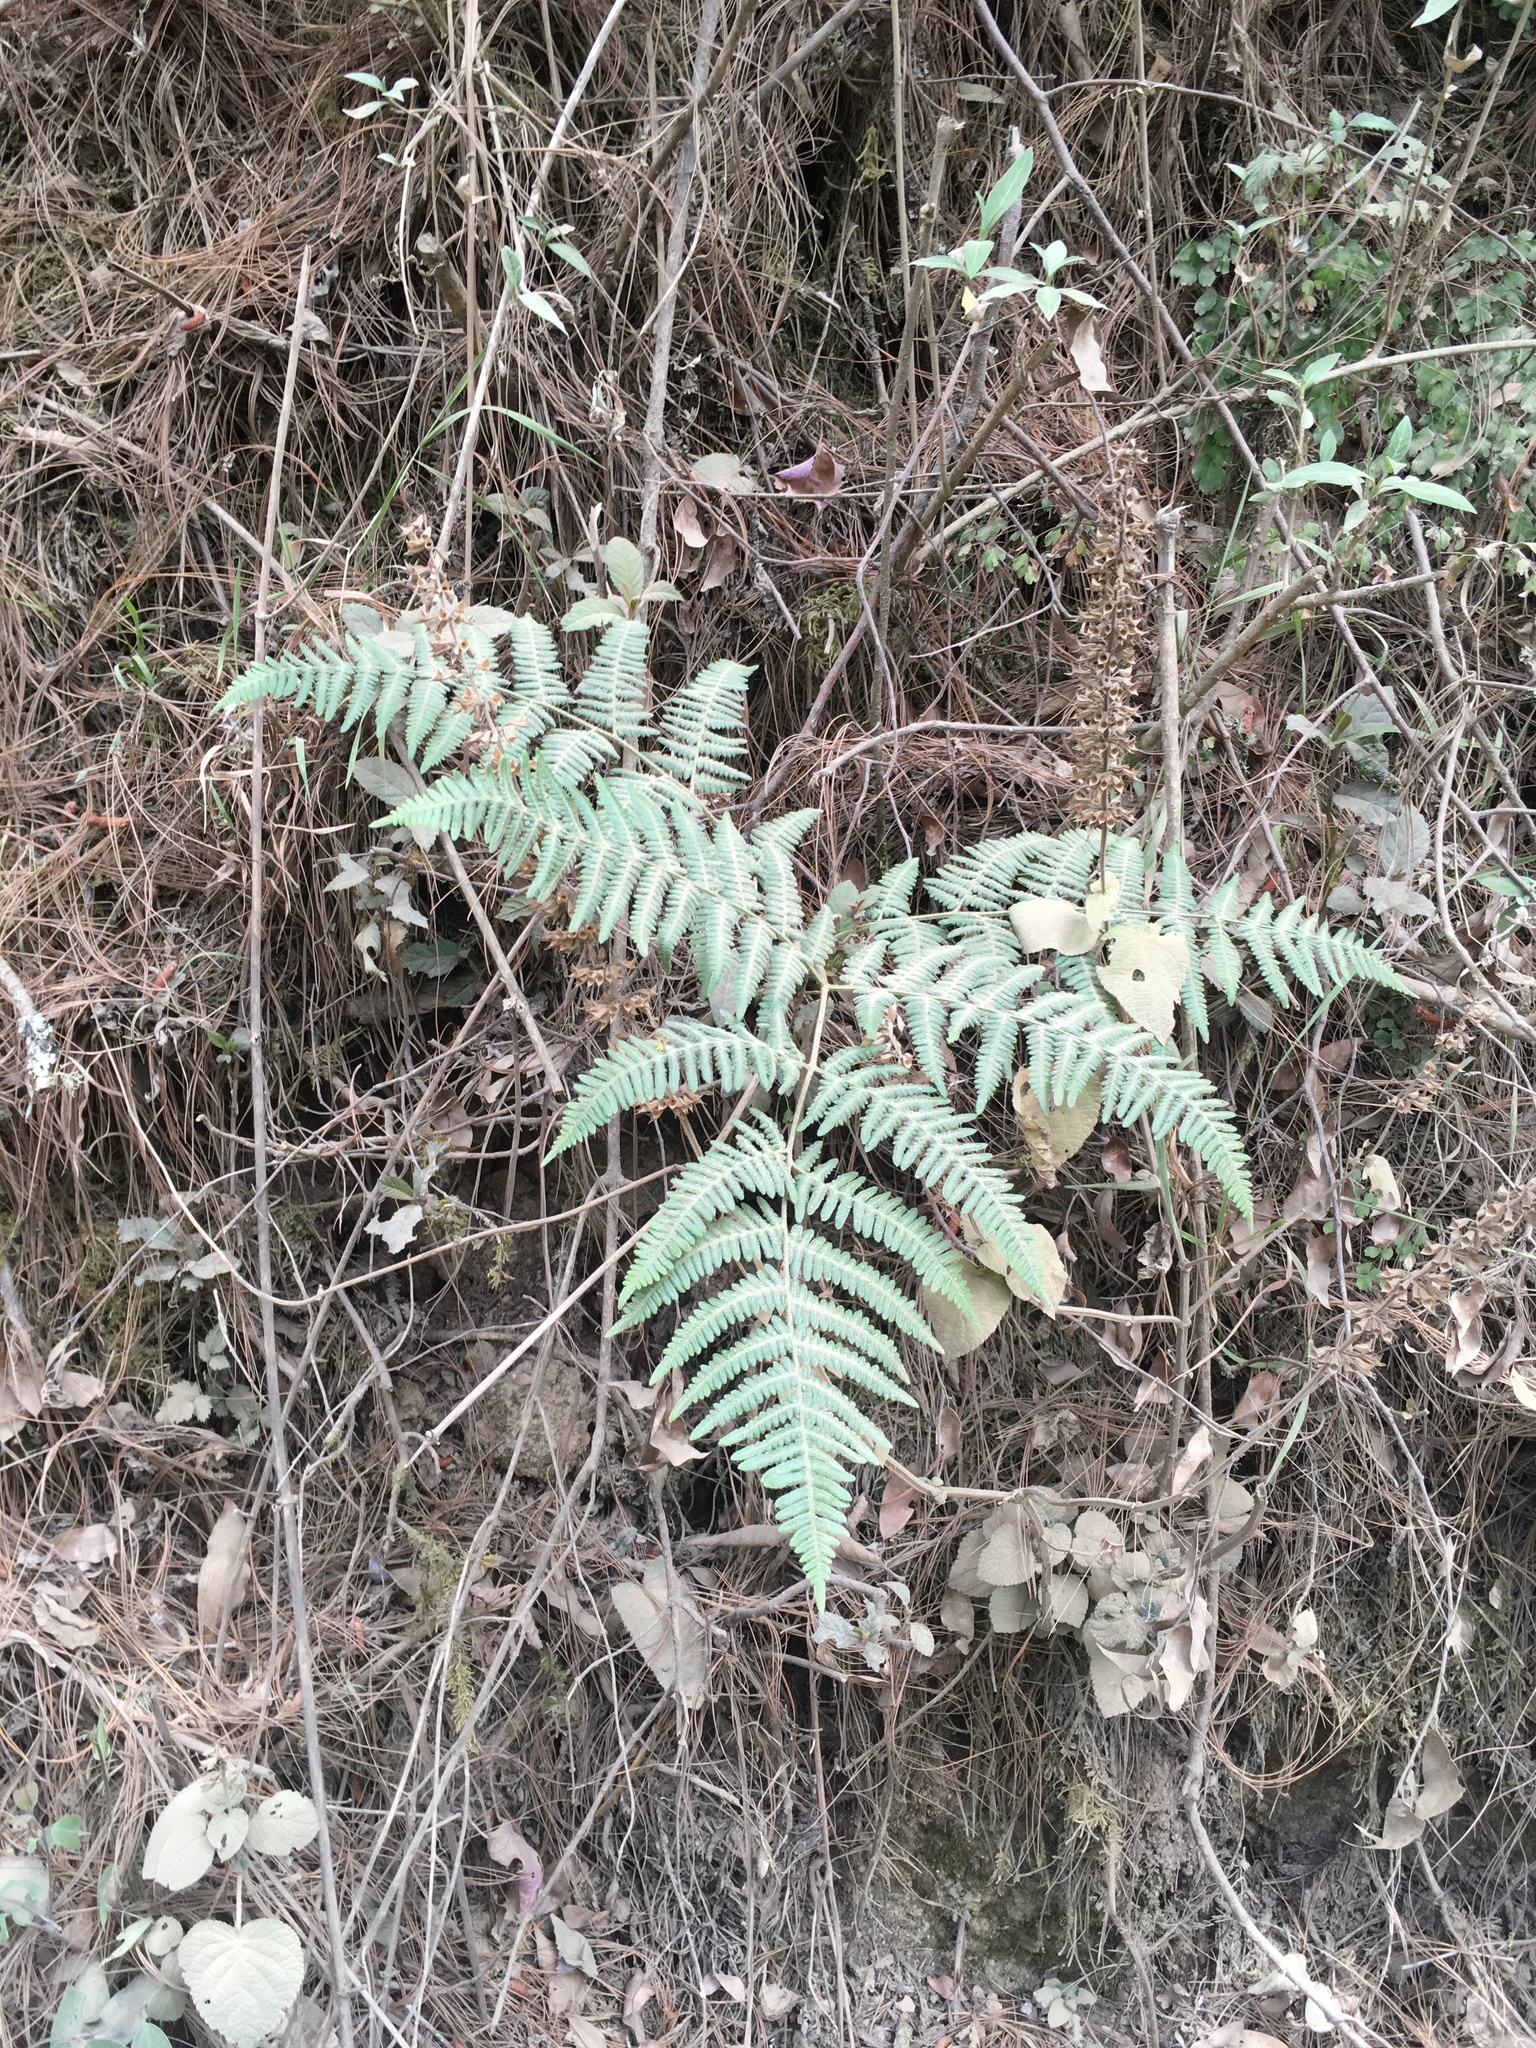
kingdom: Plantae
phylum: Tracheophyta
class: Polypodiopsida
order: Polypodiales
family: Dennstaedtiaceae
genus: Pteridium
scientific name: Pteridium aquilinum
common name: Bracken
